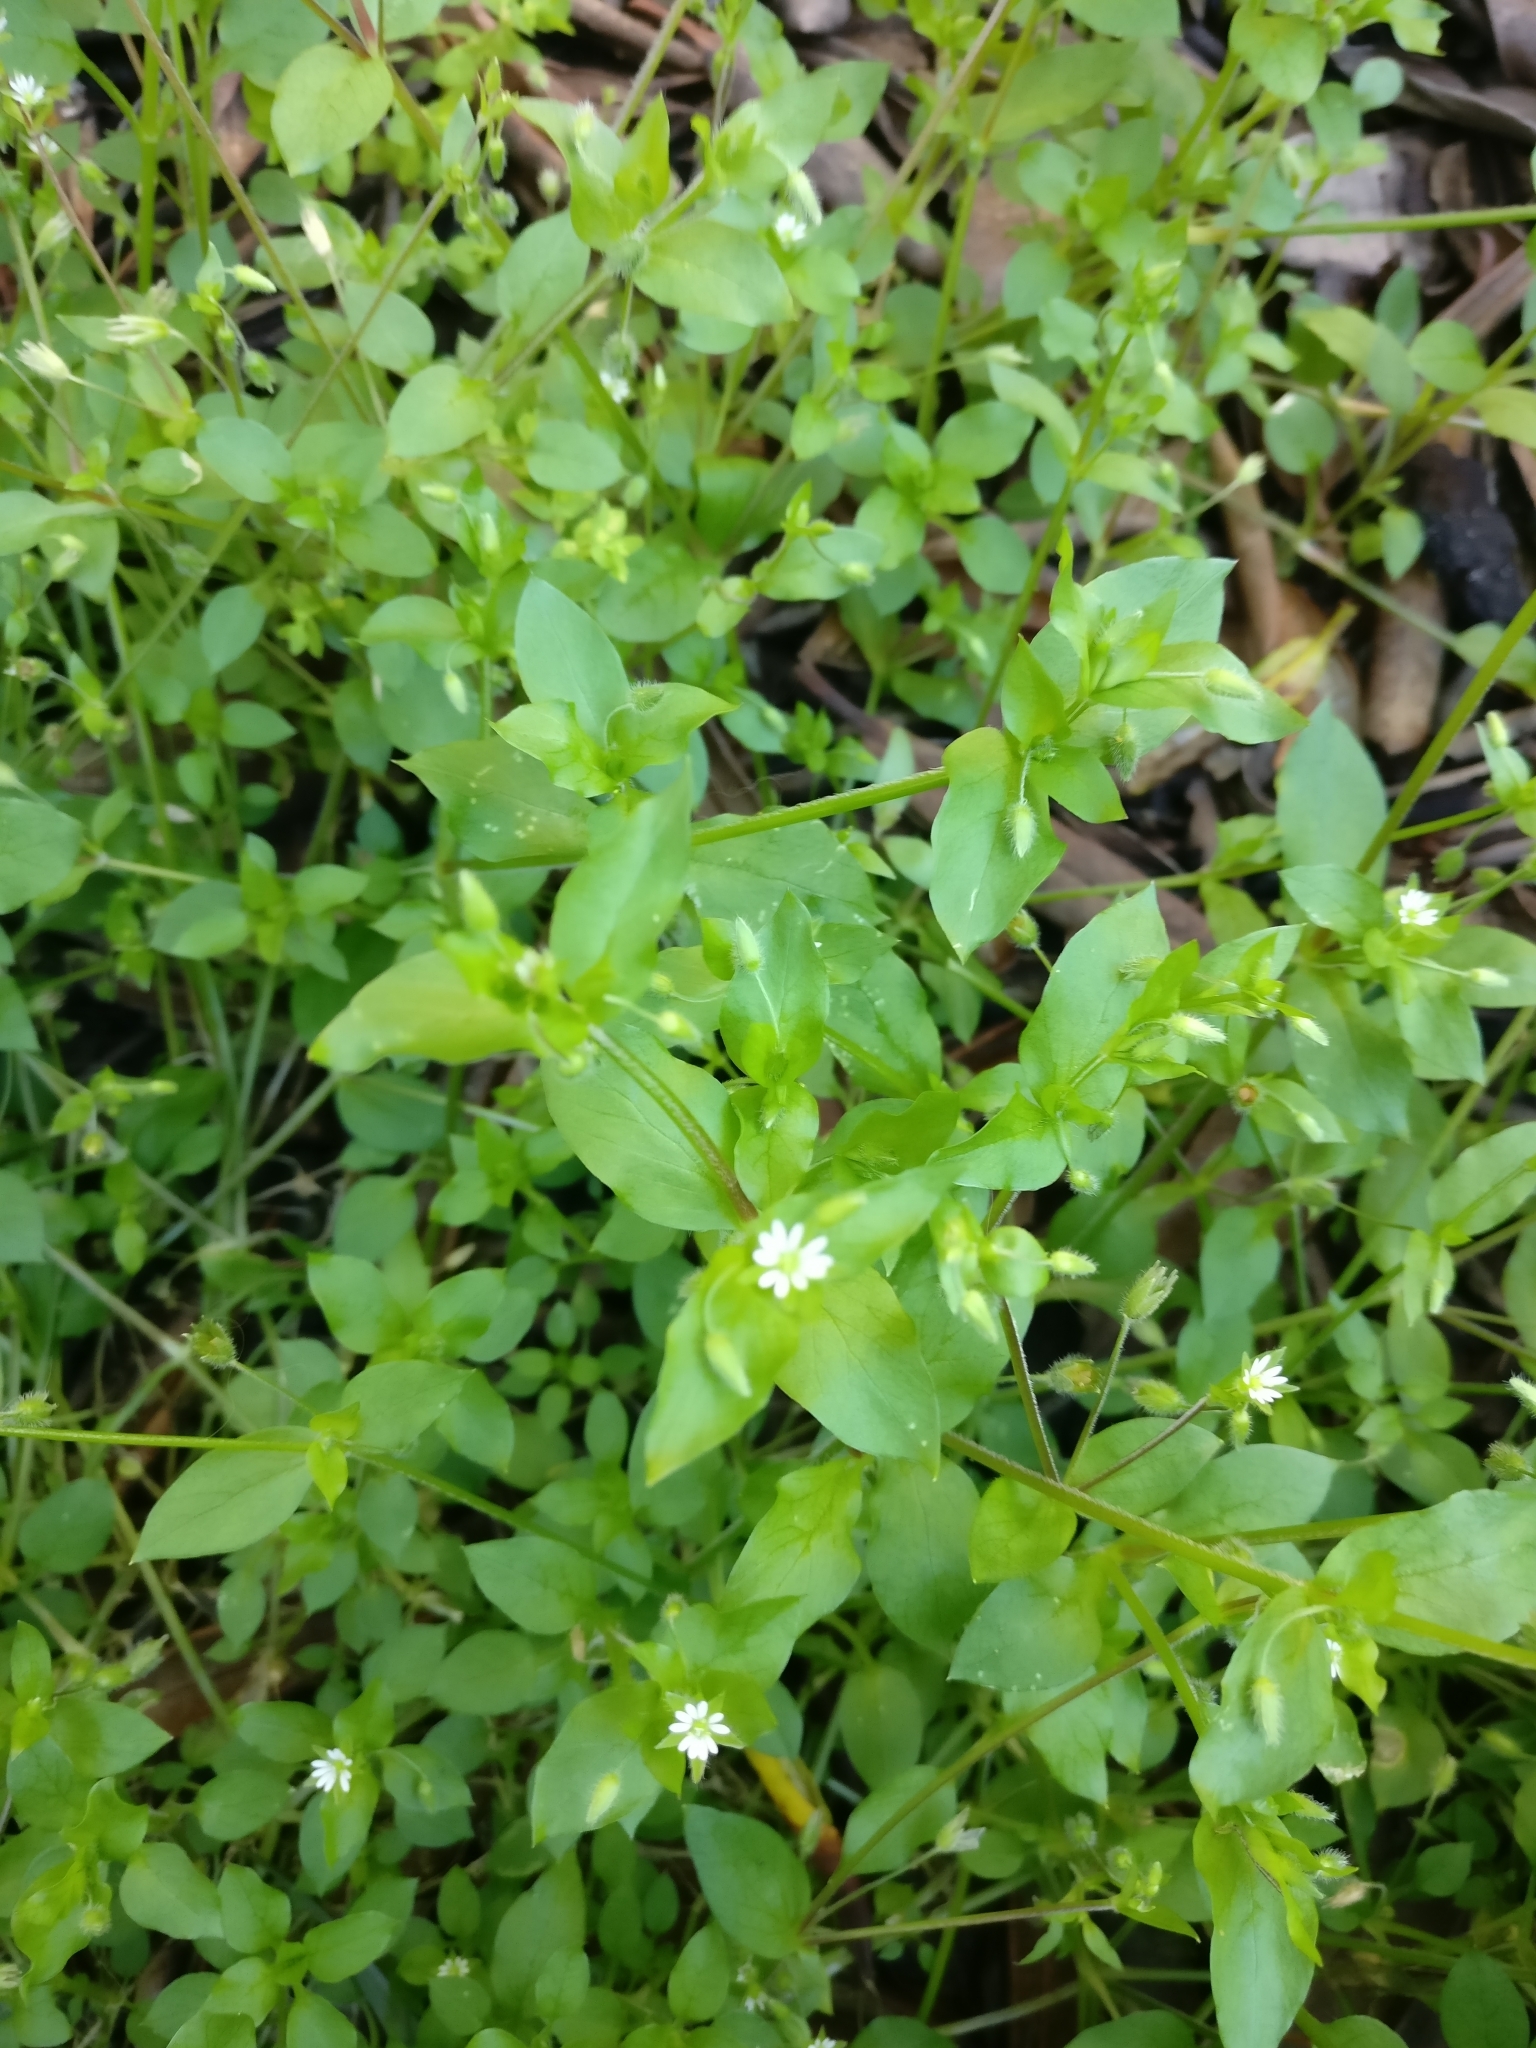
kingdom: Plantae
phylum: Tracheophyta
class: Magnoliopsida
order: Caryophyllales
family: Caryophyllaceae
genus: Stellaria
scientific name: Stellaria media
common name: Common chickweed
